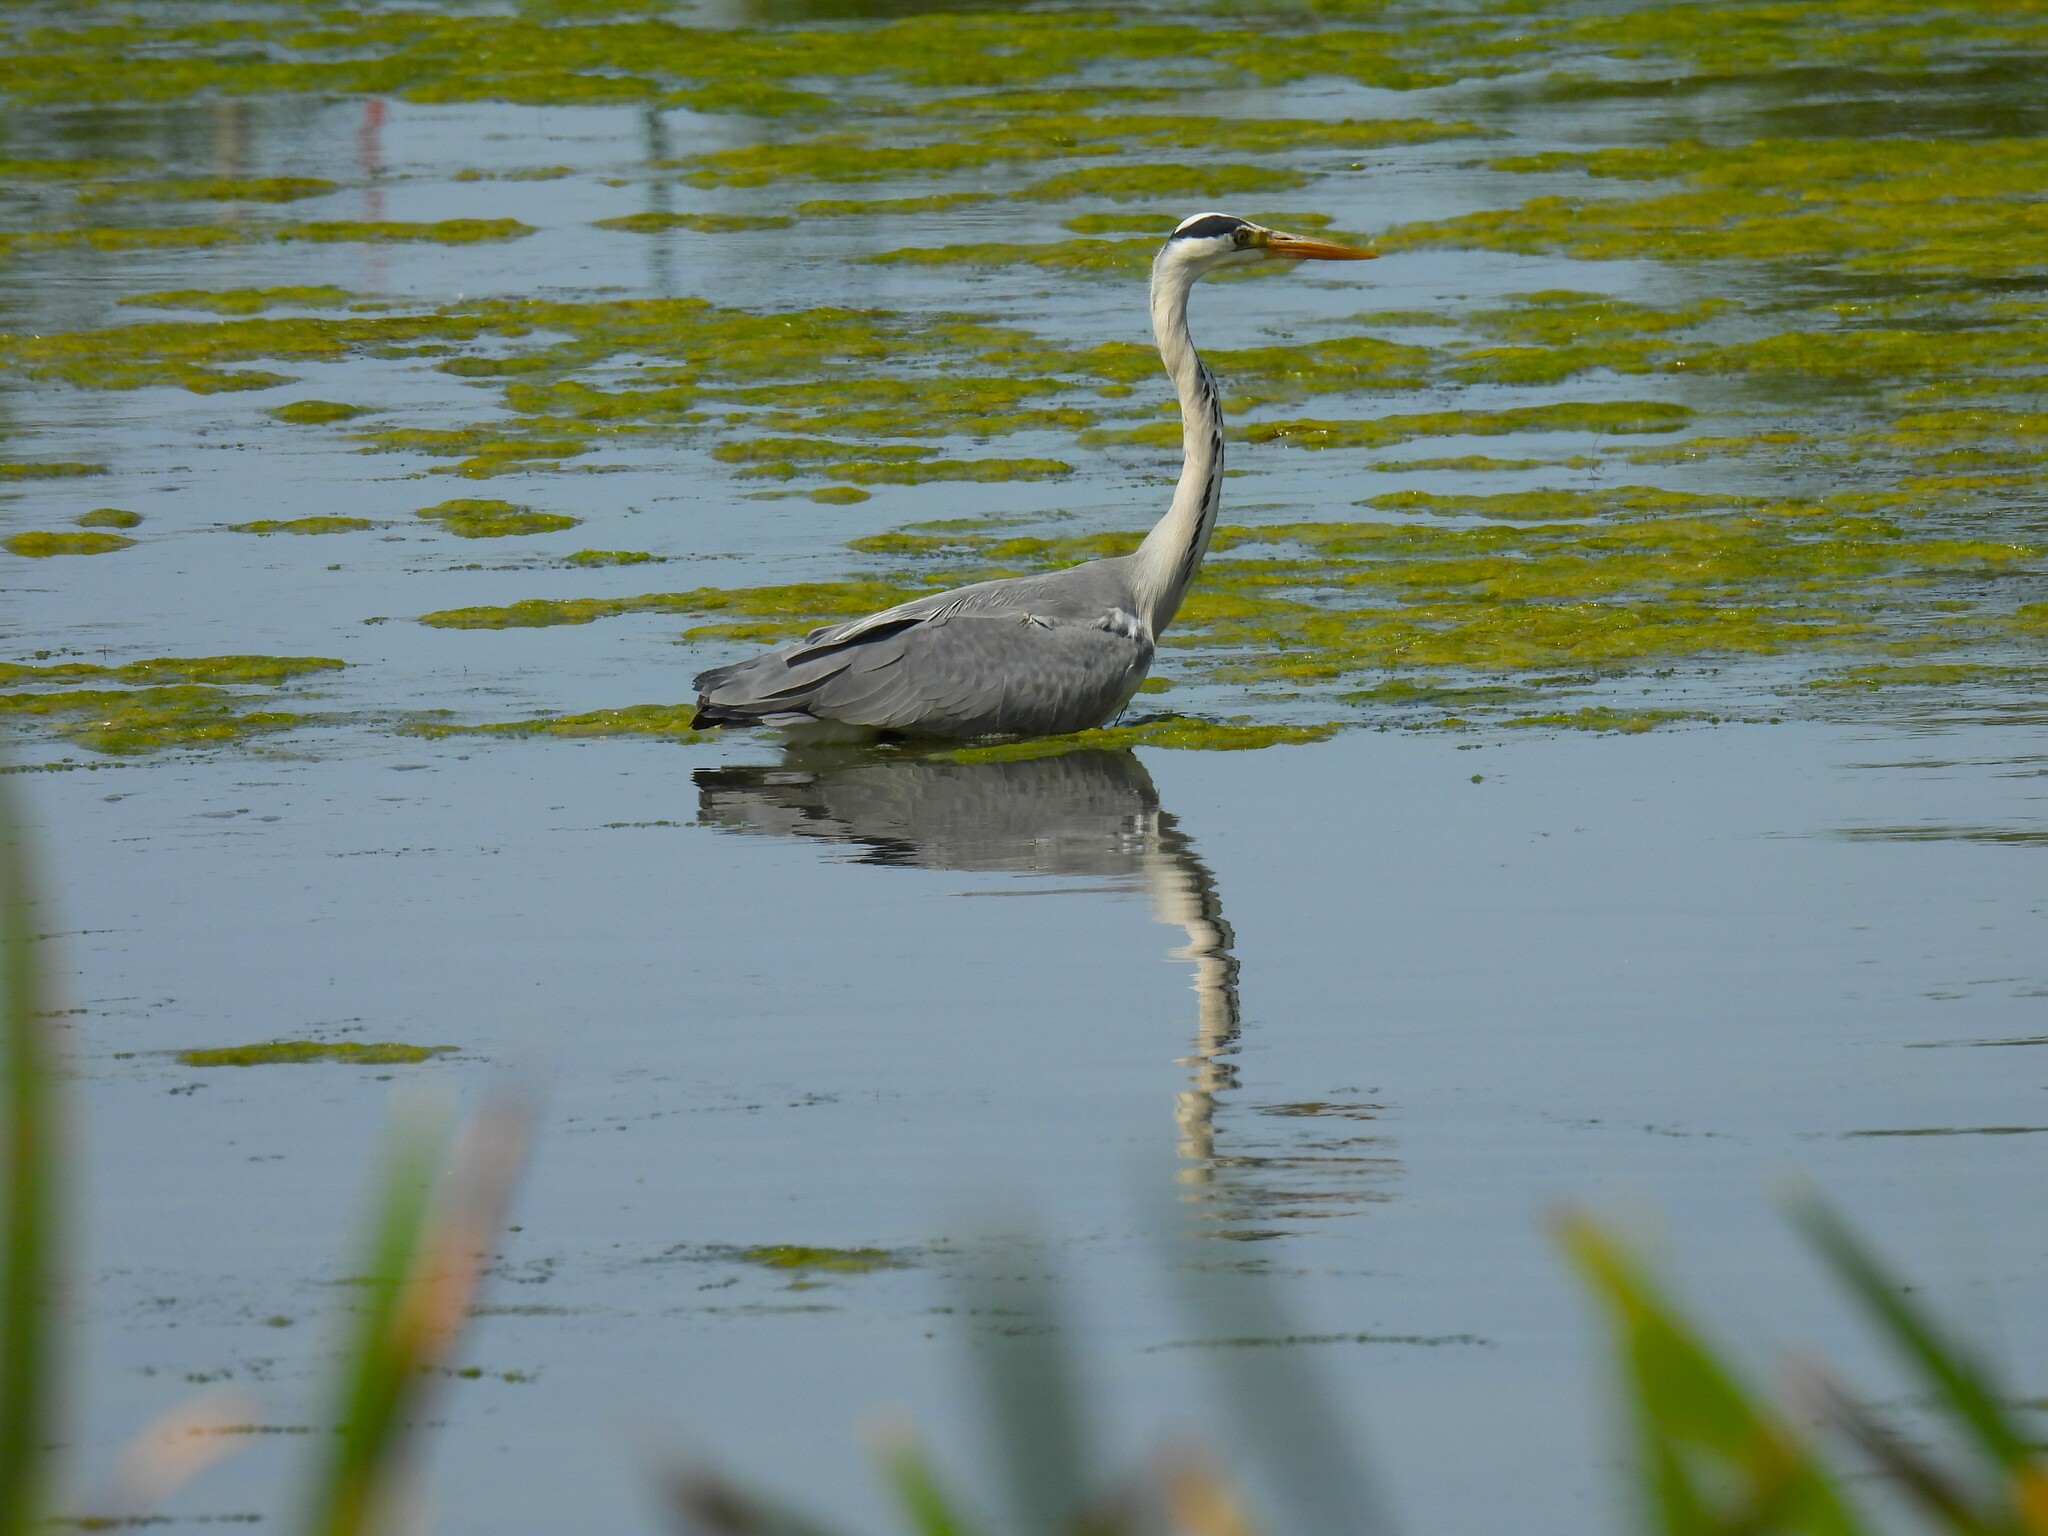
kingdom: Animalia
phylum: Chordata
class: Aves
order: Pelecaniformes
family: Ardeidae
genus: Ardea
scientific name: Ardea cinerea
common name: Grey heron
